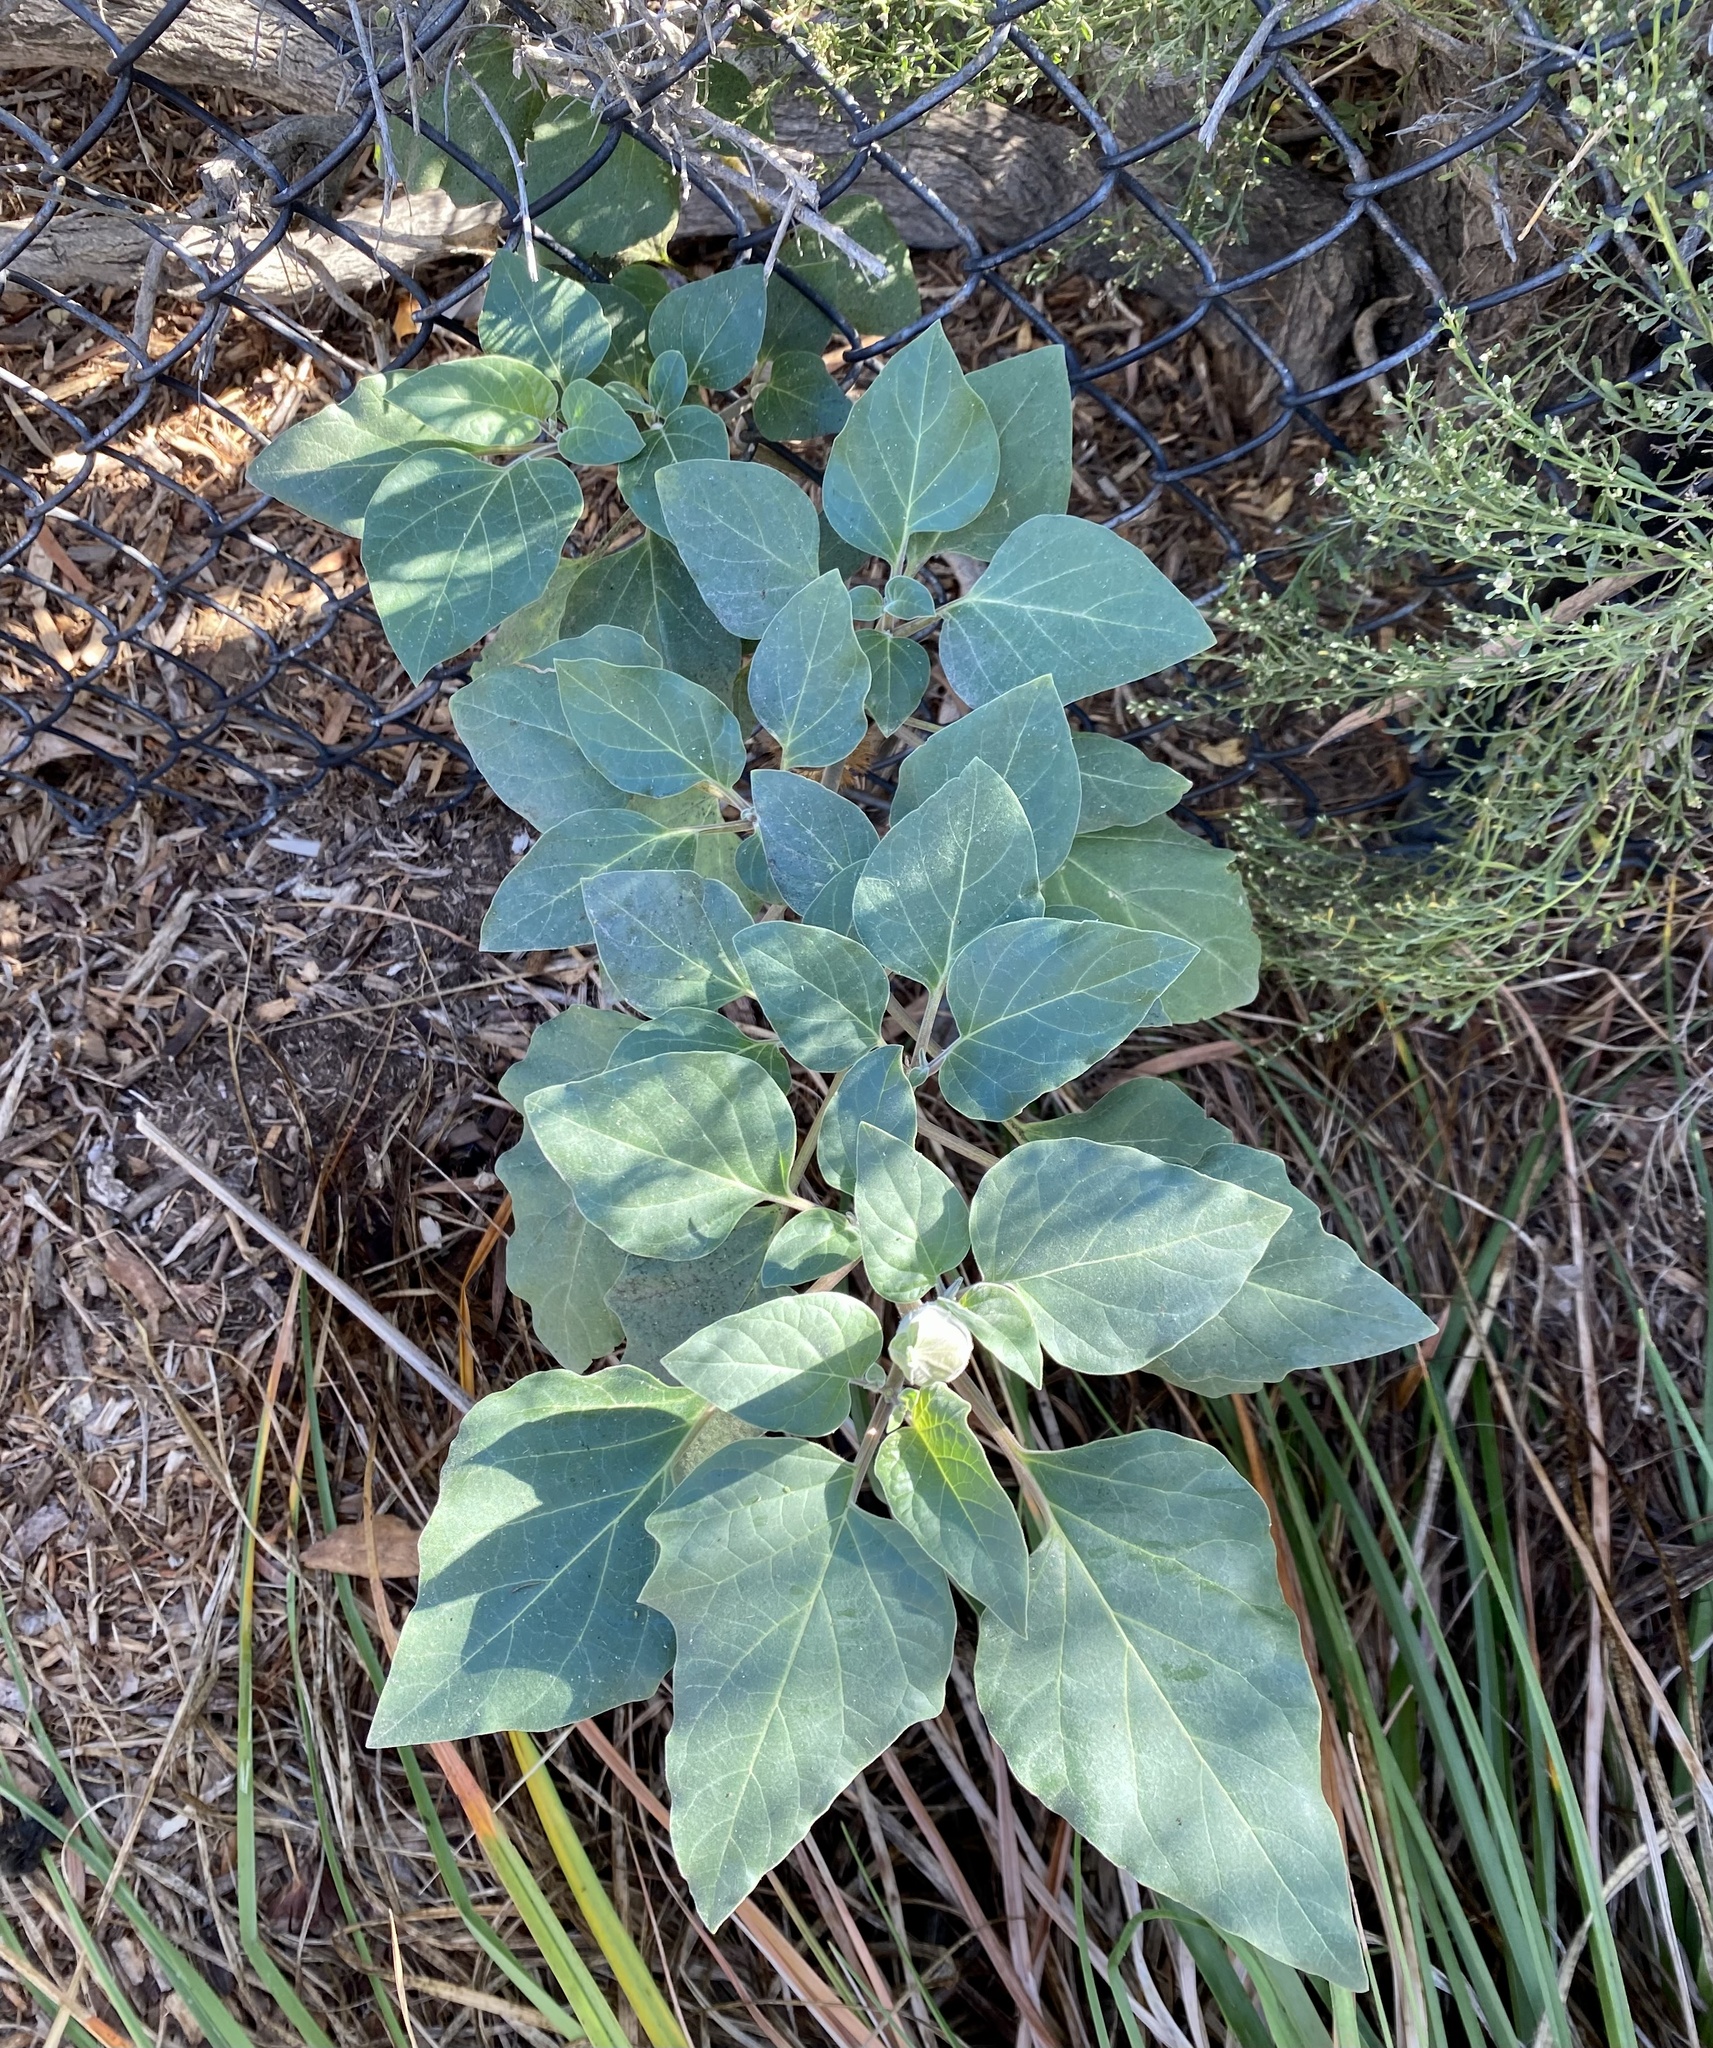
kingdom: Plantae
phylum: Tracheophyta
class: Magnoliopsida
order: Solanales
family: Solanaceae
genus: Datura
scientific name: Datura wrightii
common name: Sacred thorn-apple
